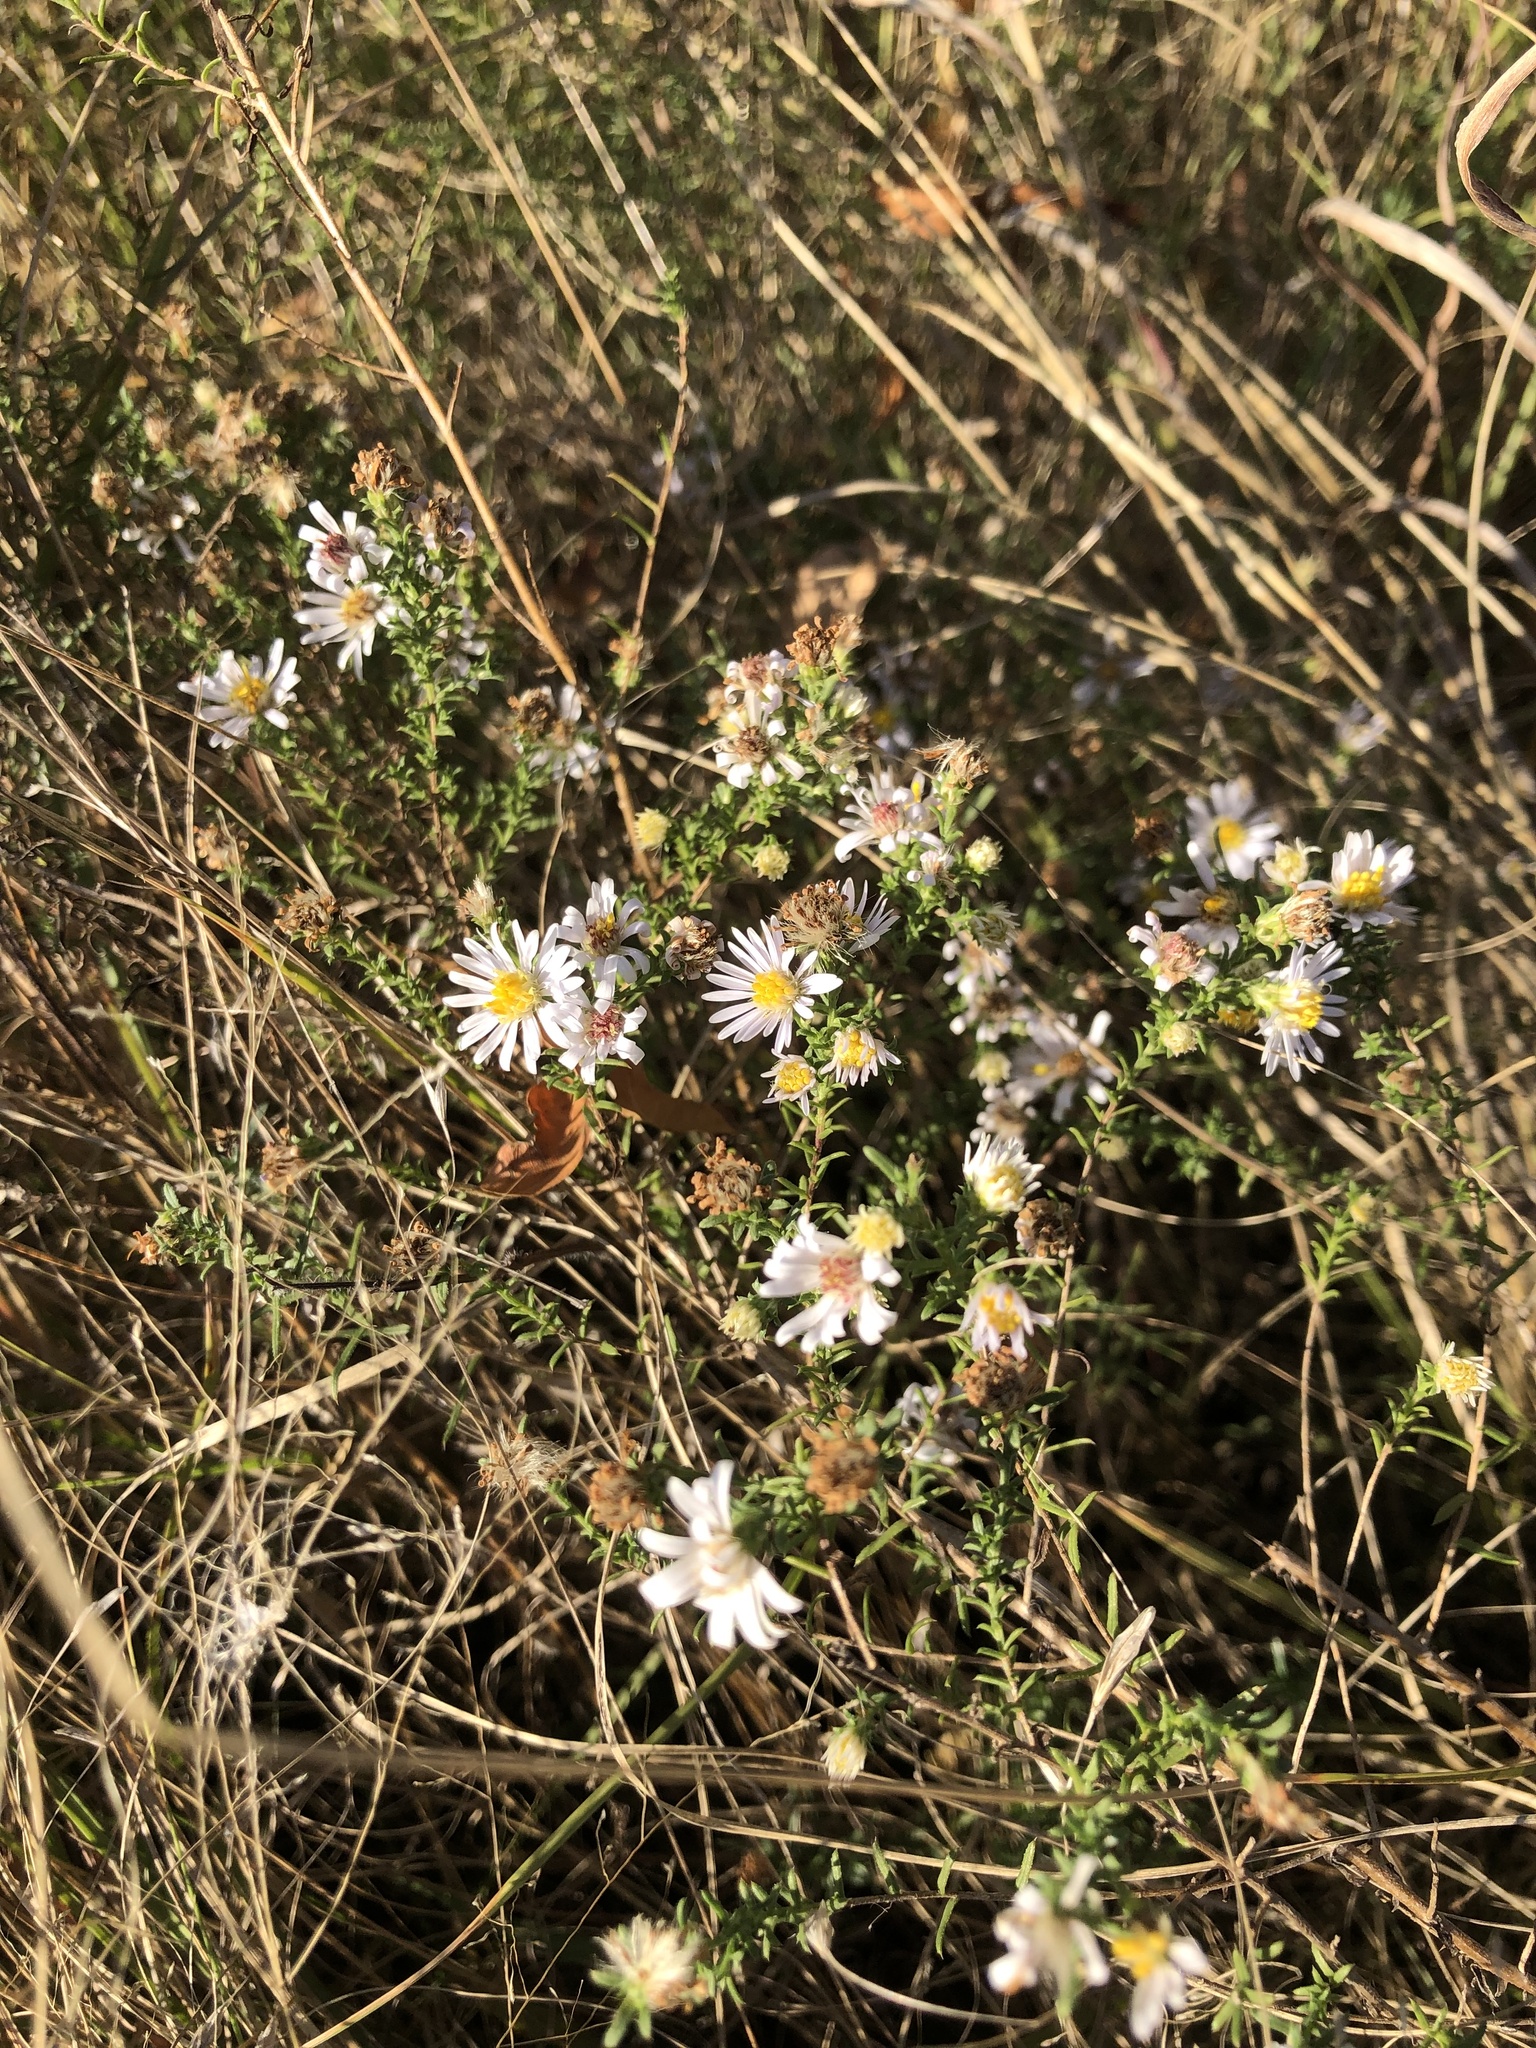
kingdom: Plantae
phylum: Tracheophyta
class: Magnoliopsida
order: Asterales
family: Asteraceae
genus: Symphyotrichum
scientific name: Symphyotrichum ericoides
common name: Heath aster
